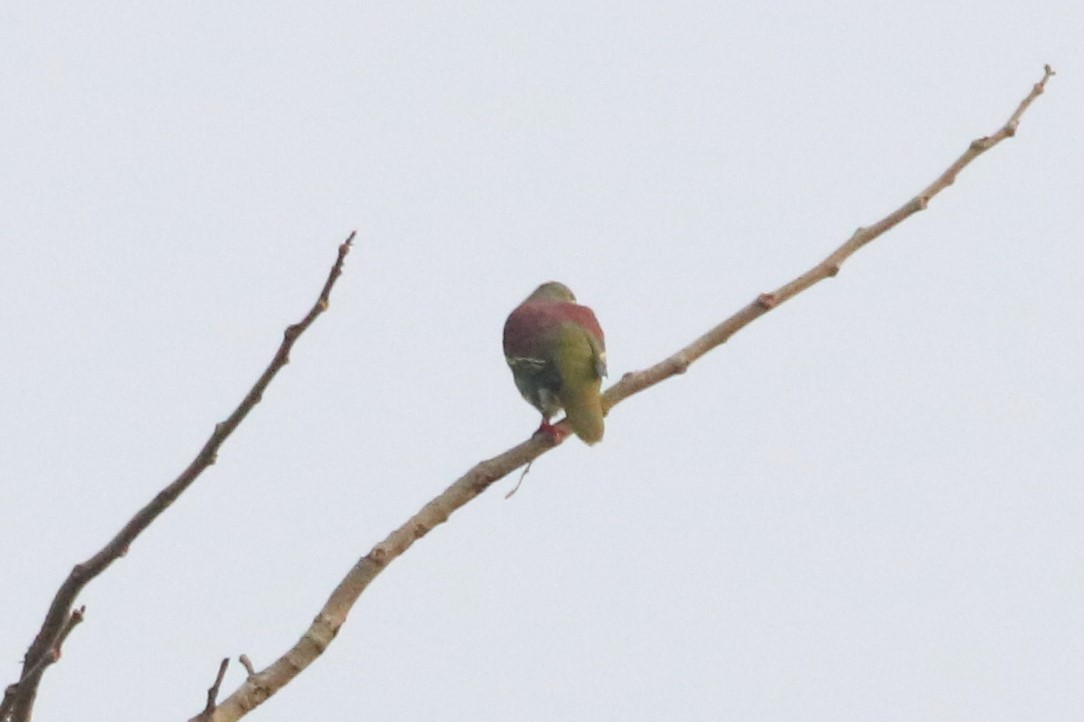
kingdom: Animalia
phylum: Chordata
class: Aves
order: Columbiformes
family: Columbidae
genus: Treron
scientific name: Treron curvirostra
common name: Thick-billed green pigeon
